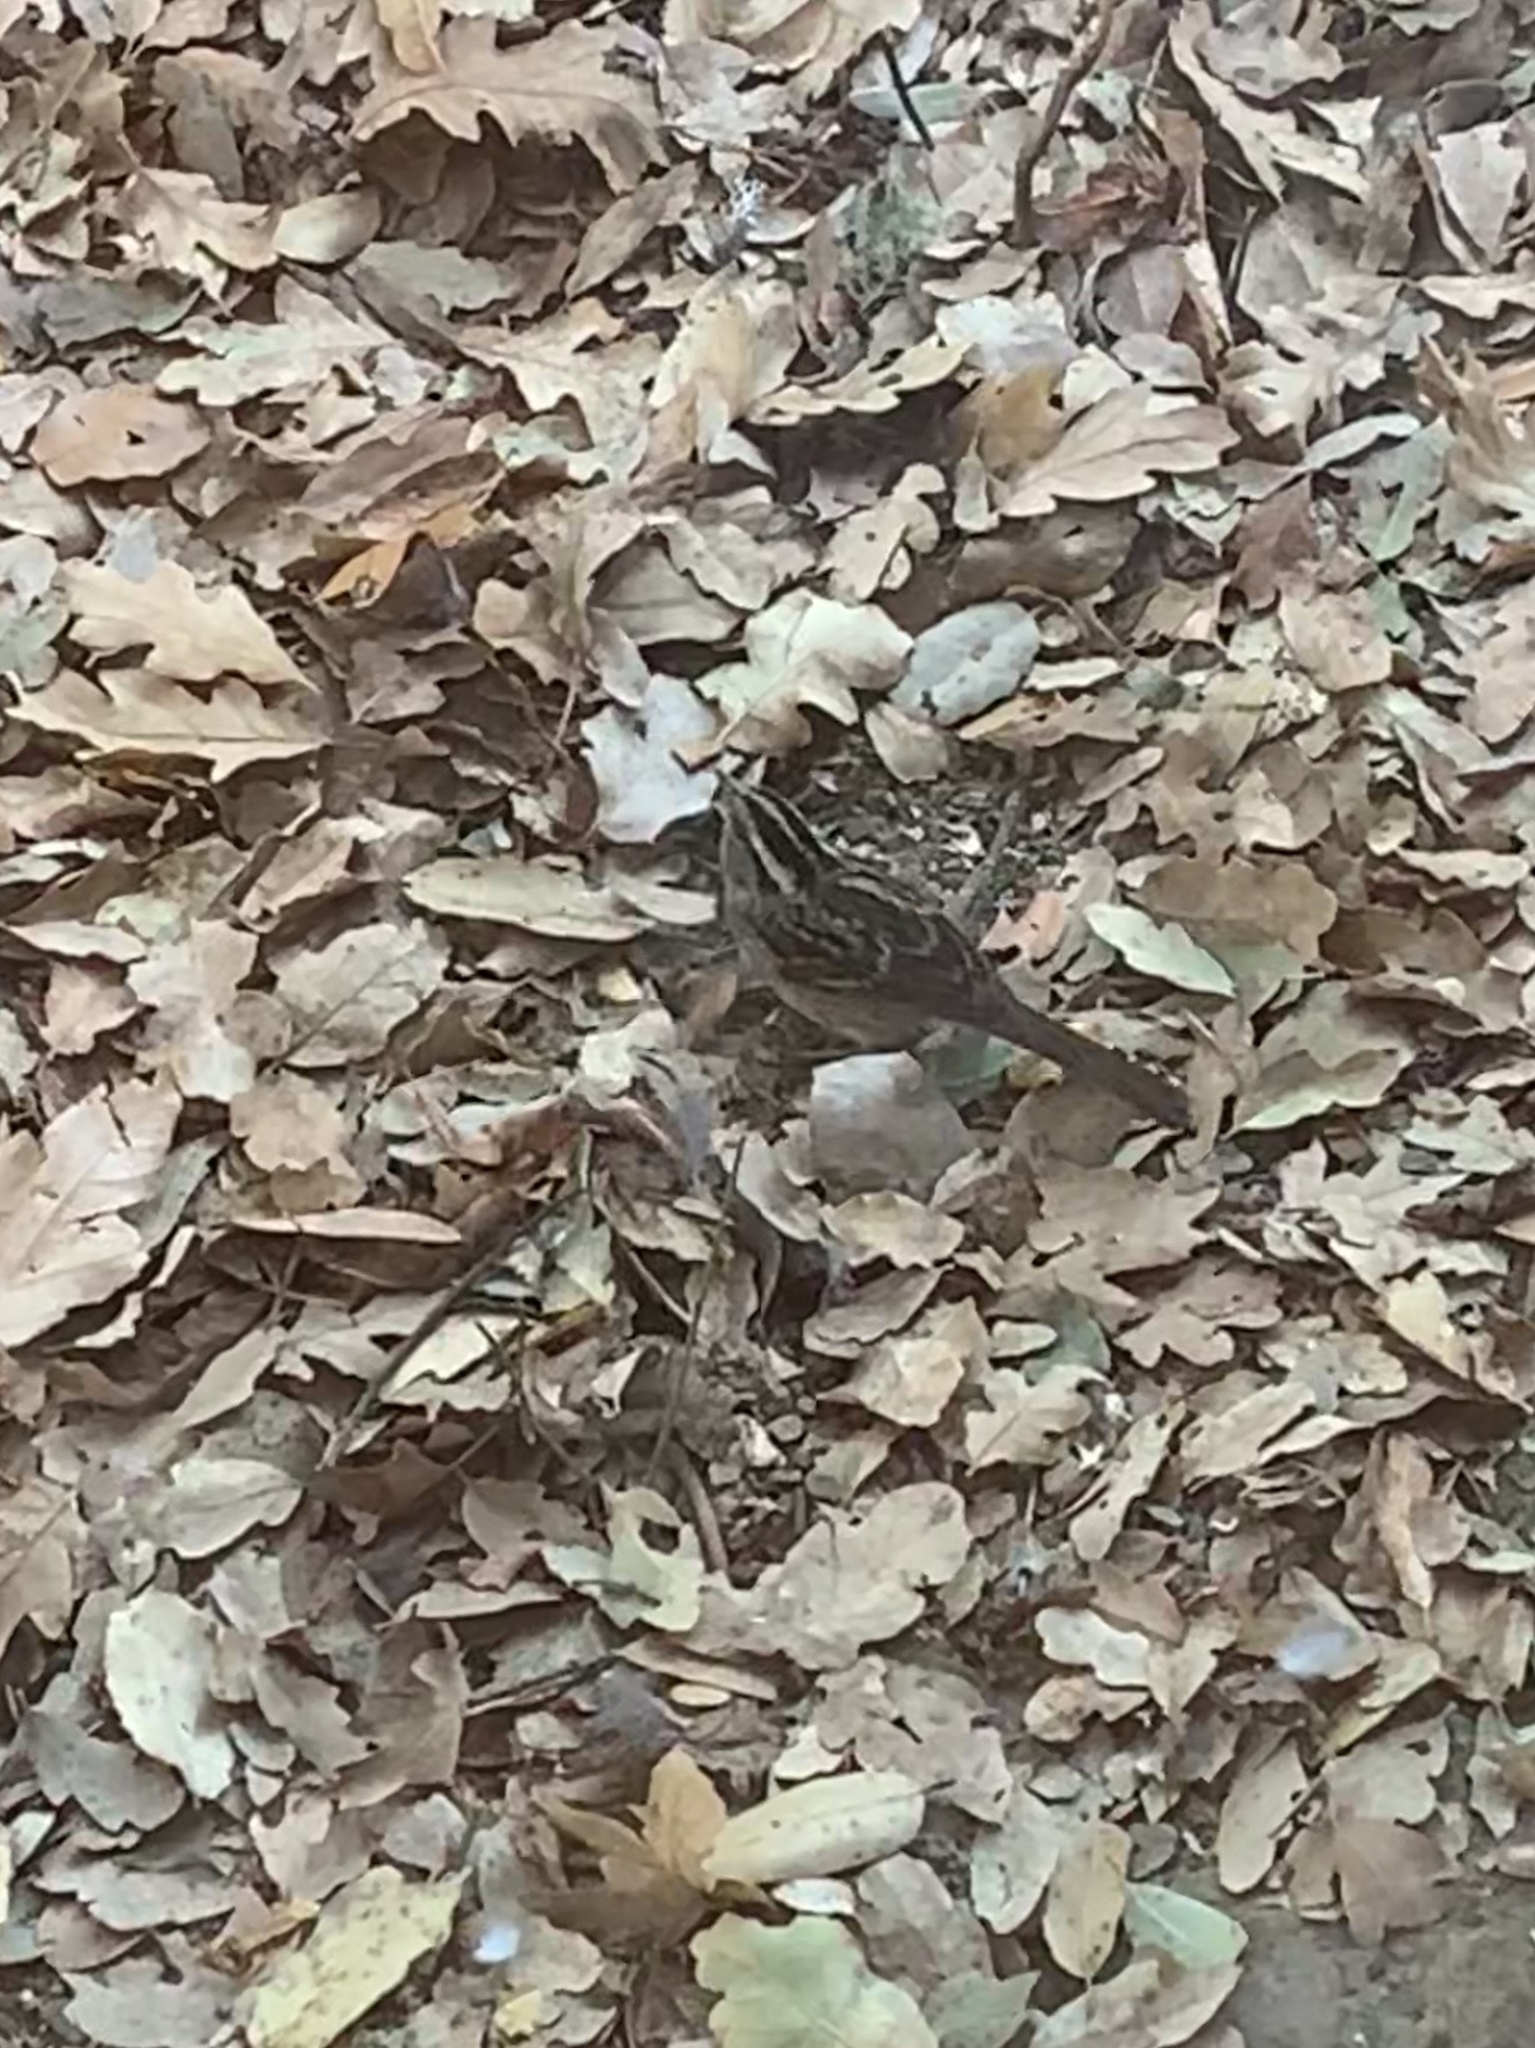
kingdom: Animalia
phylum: Chordata
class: Aves
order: Passeriformes
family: Passerellidae
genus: Zonotrichia
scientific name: Zonotrichia albicollis
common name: White-throated sparrow
